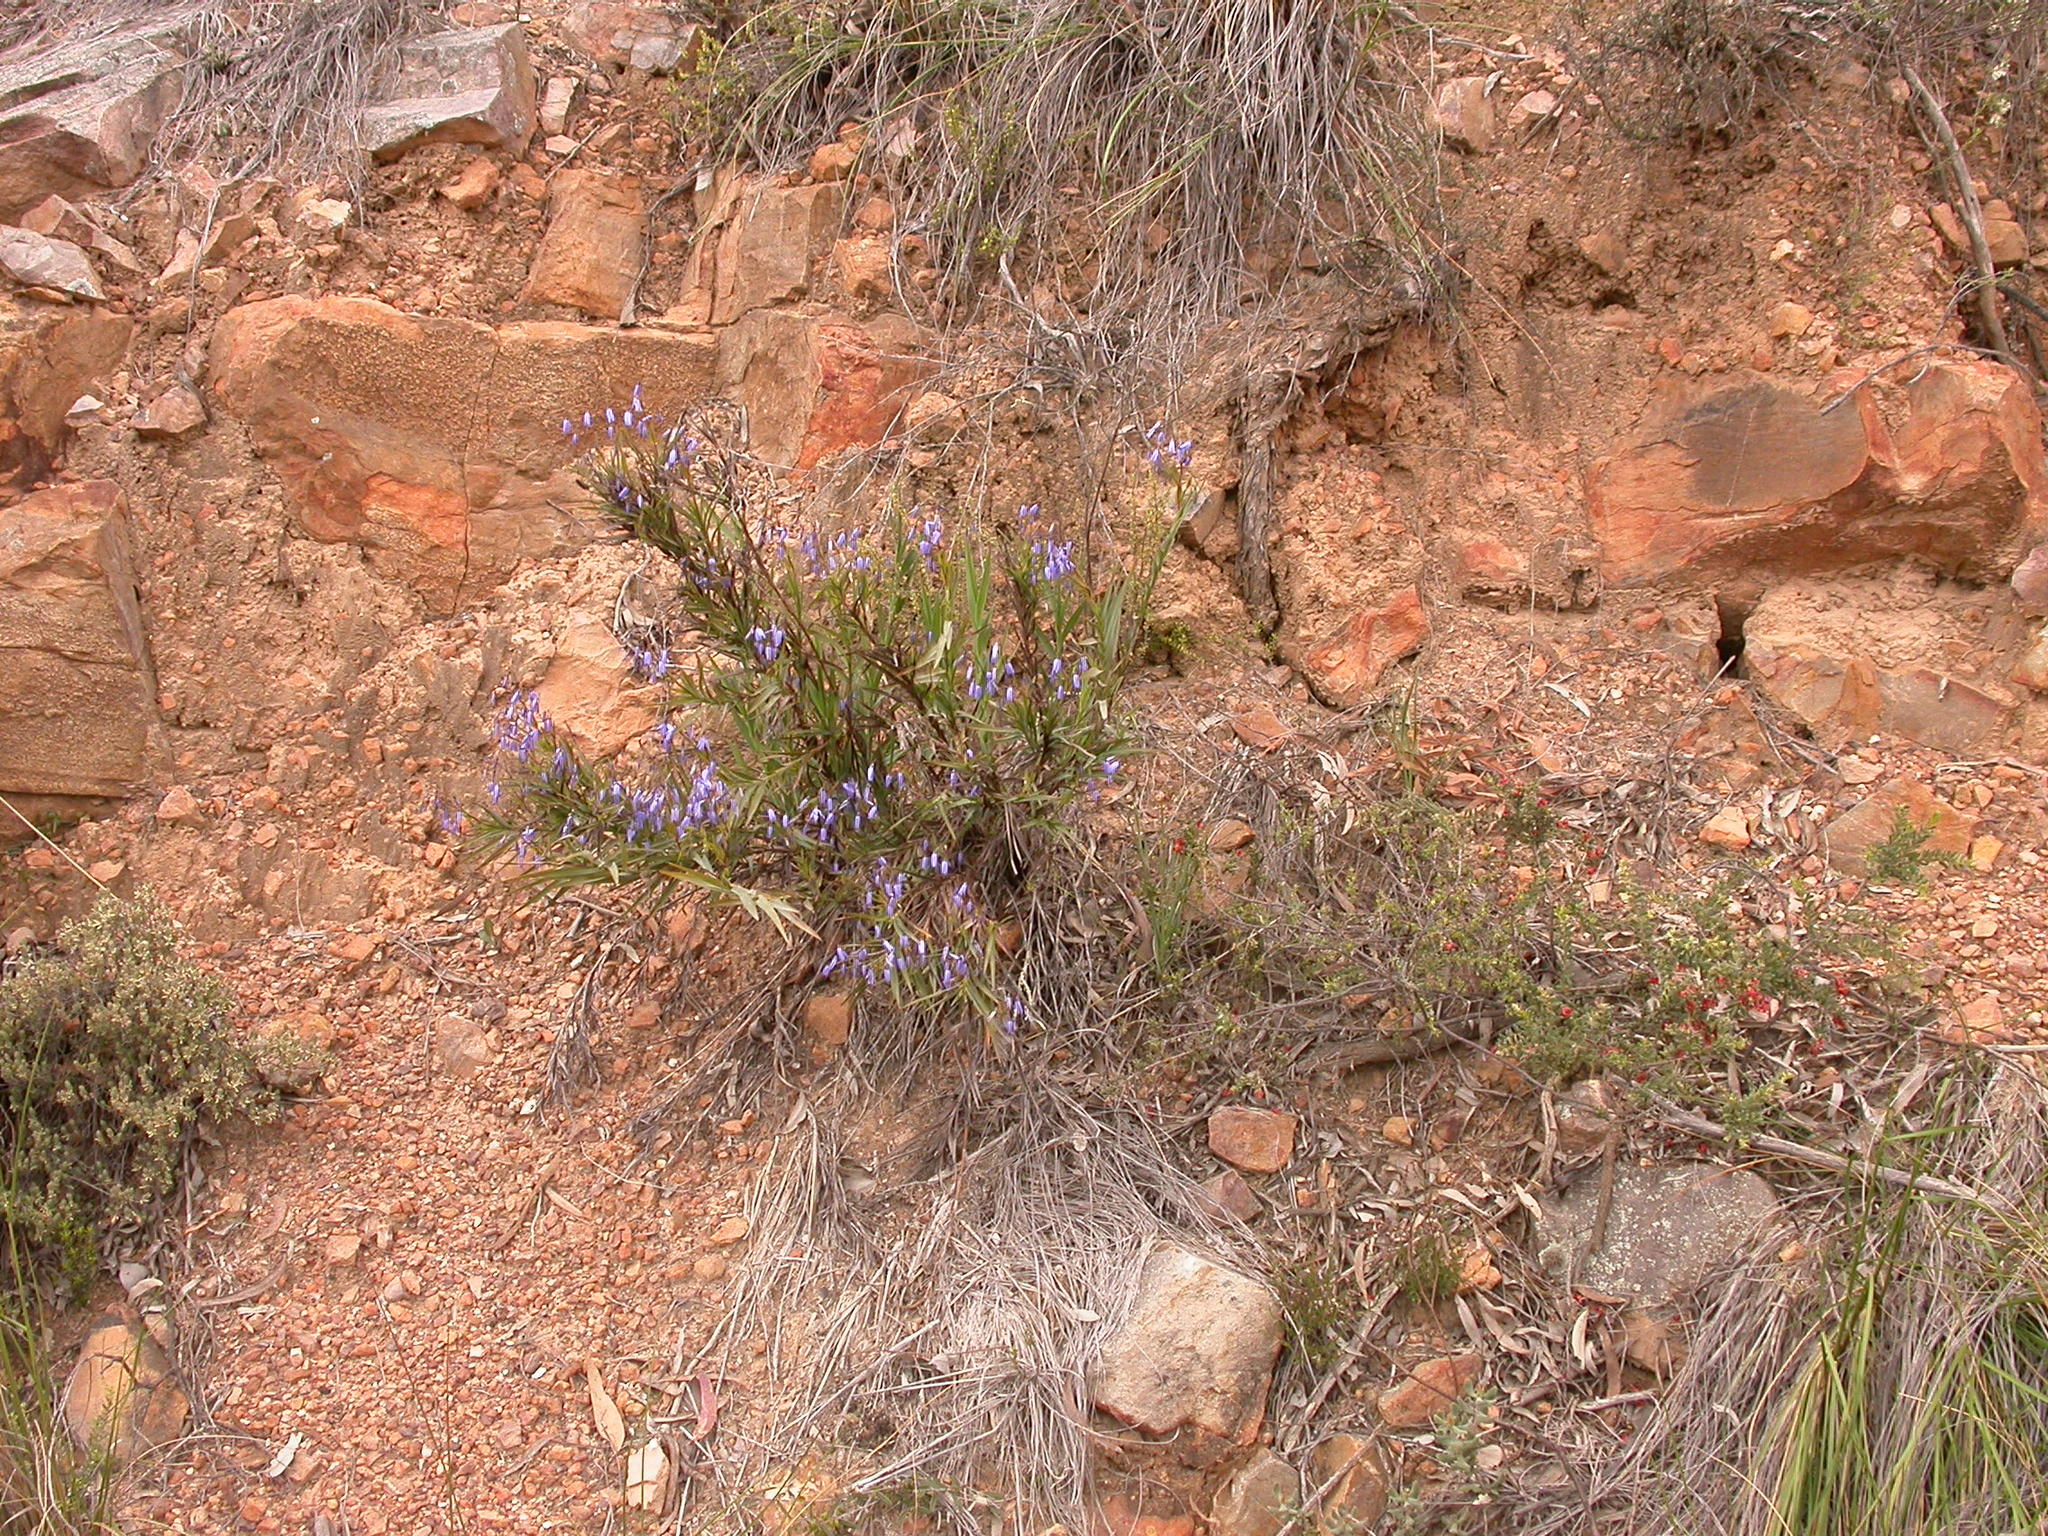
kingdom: Plantae
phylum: Tracheophyta
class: Liliopsida
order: Asparagales
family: Asphodelaceae
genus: Stypandra
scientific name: Stypandra glauca
